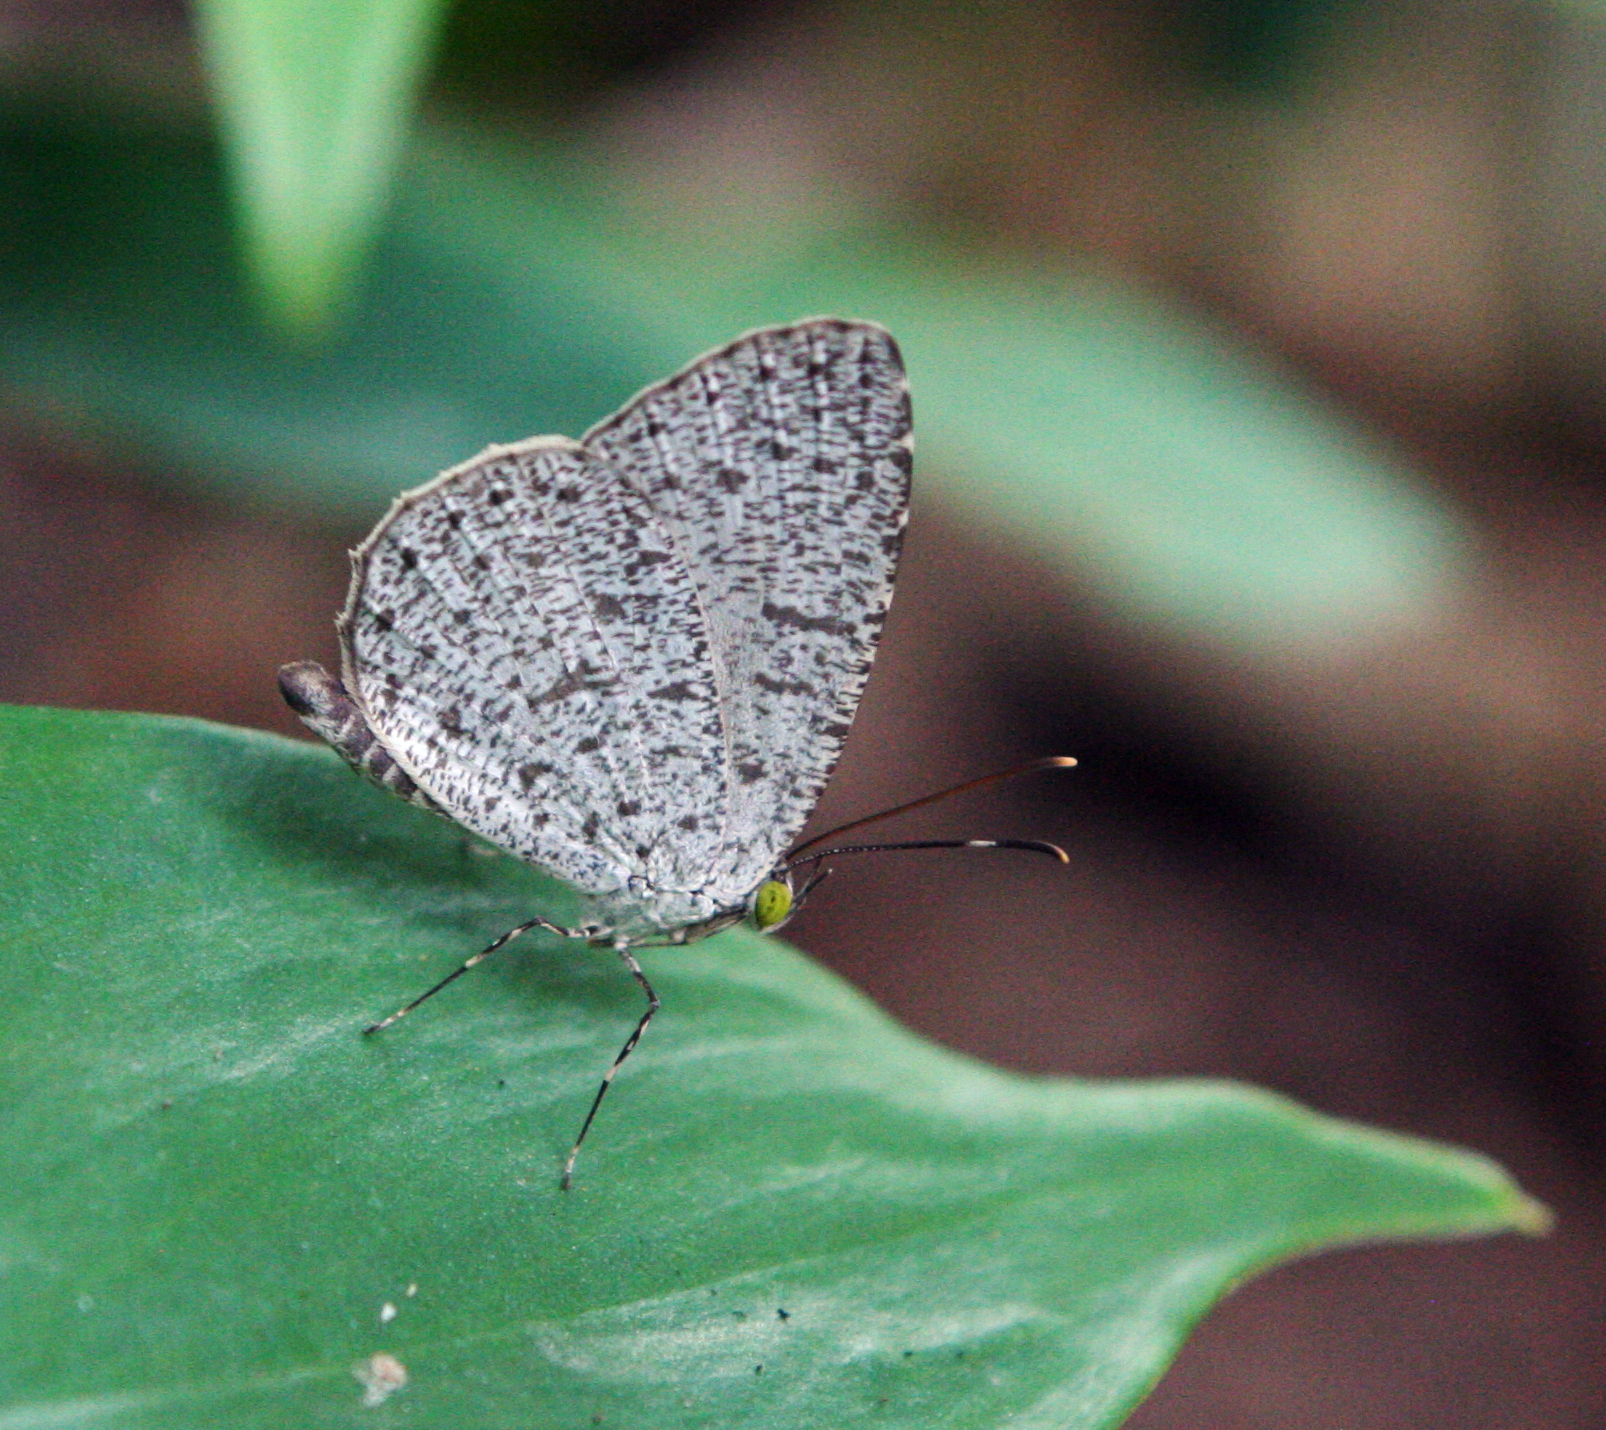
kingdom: Animalia
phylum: Arthropoda
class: Insecta
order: Lepidoptera
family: Lycaenidae
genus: Allotinus
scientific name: Allotinus unicolor
